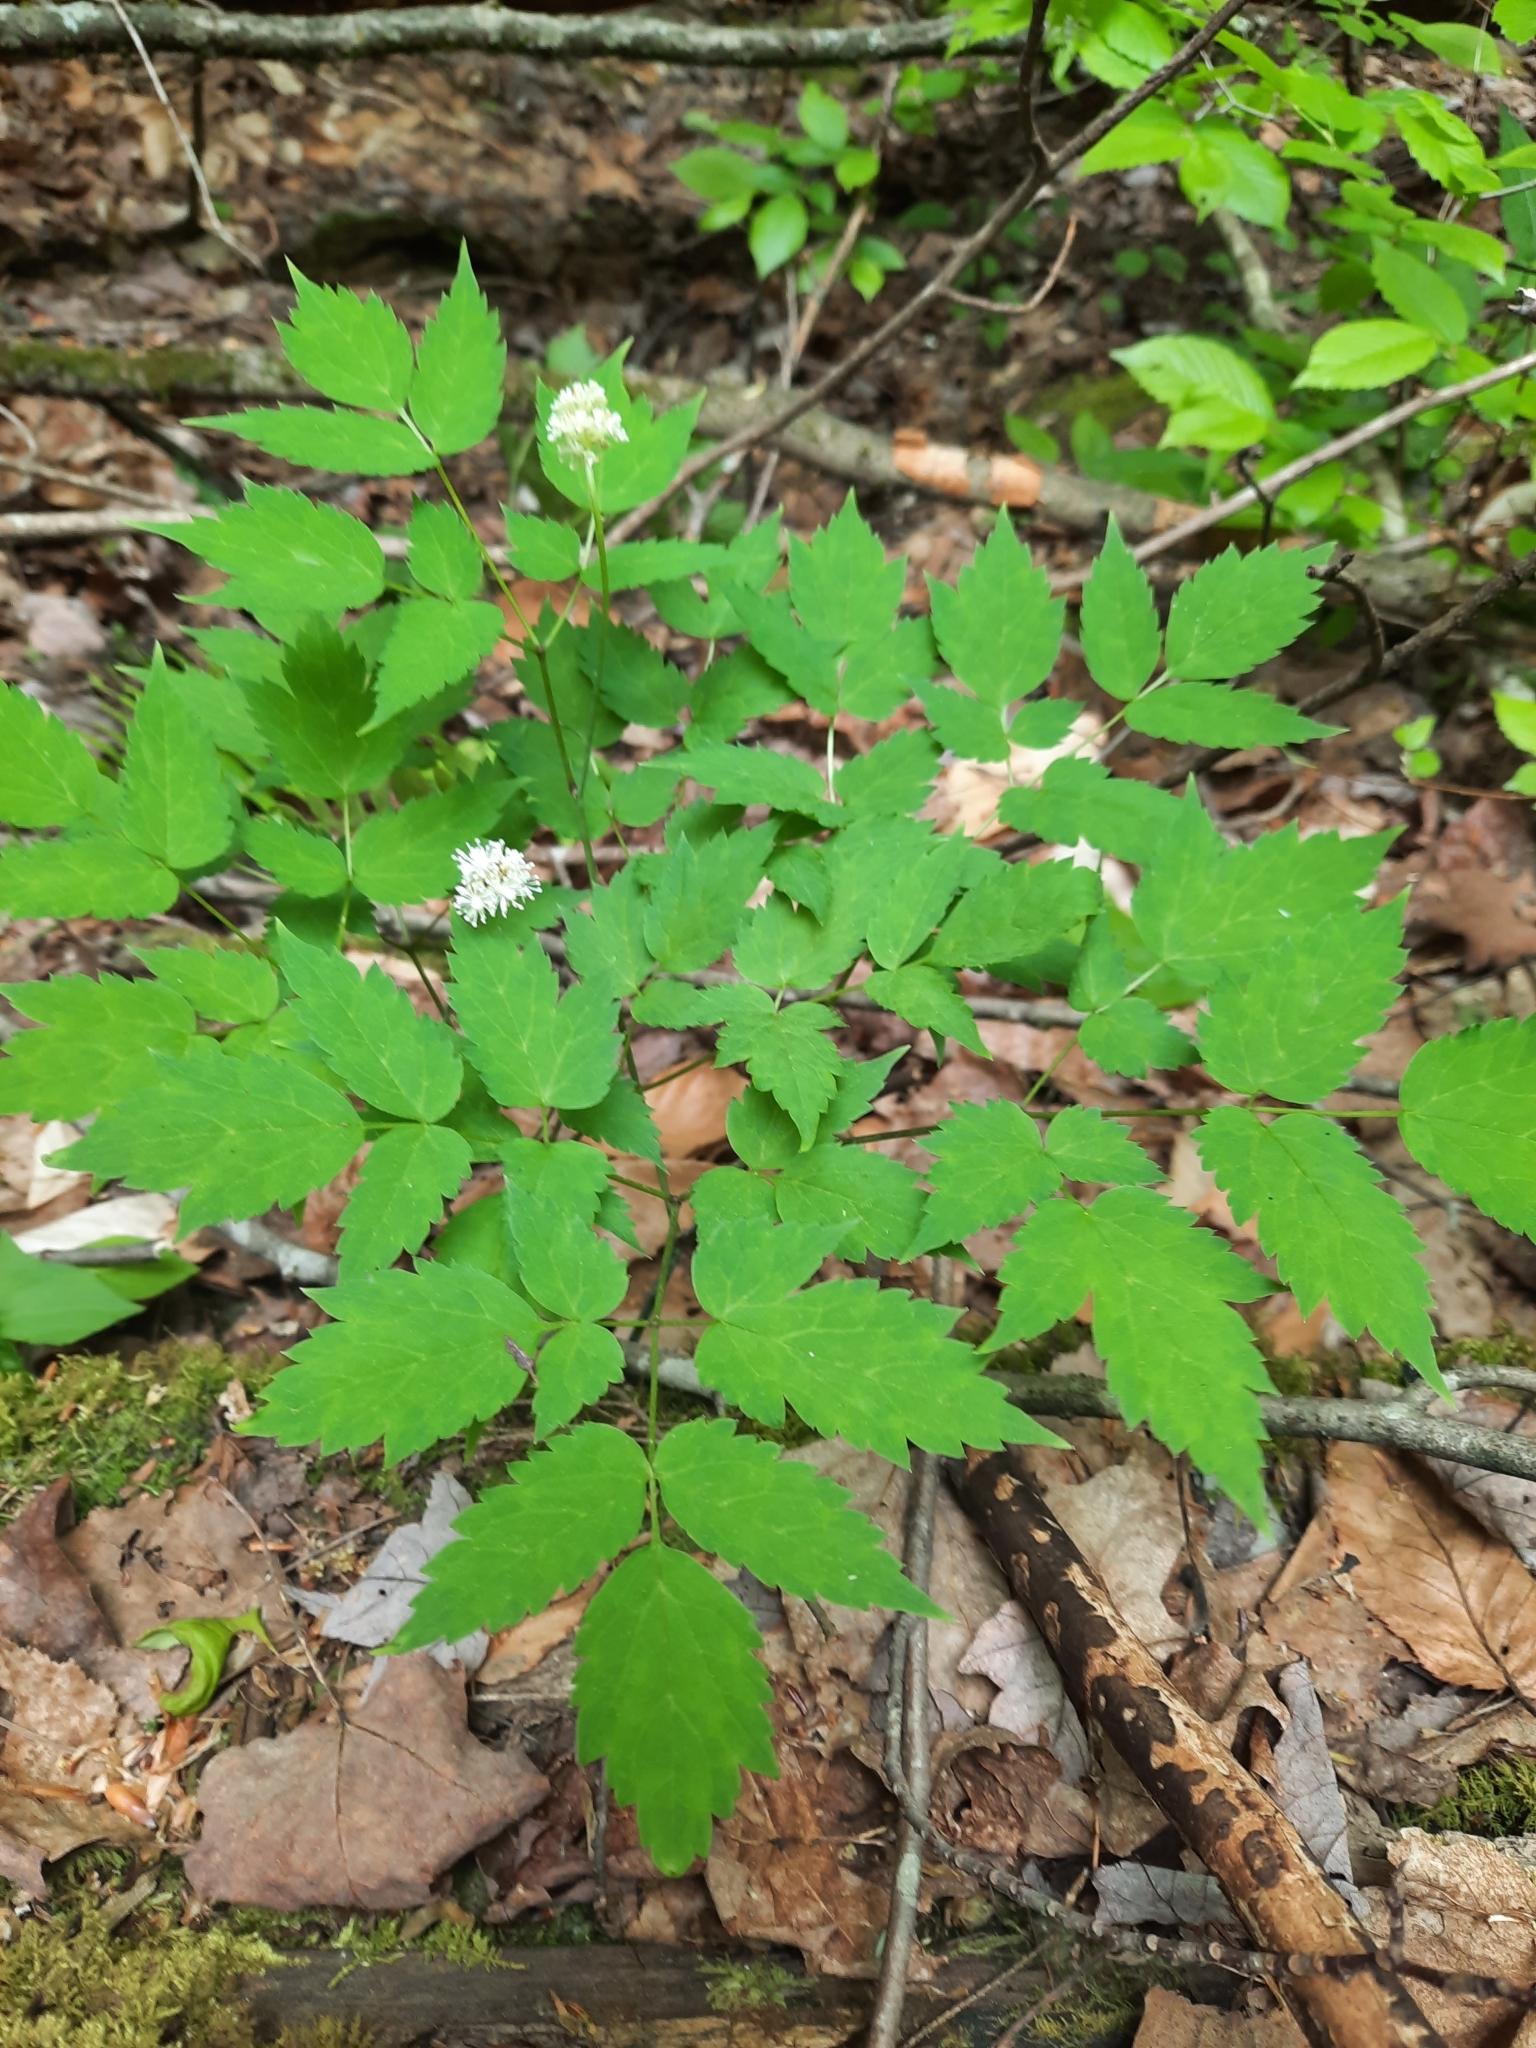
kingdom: Plantae
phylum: Tracheophyta
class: Magnoliopsida
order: Ranunculales
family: Ranunculaceae
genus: Actaea
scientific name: Actaea pachypoda
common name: Doll's-eyes
